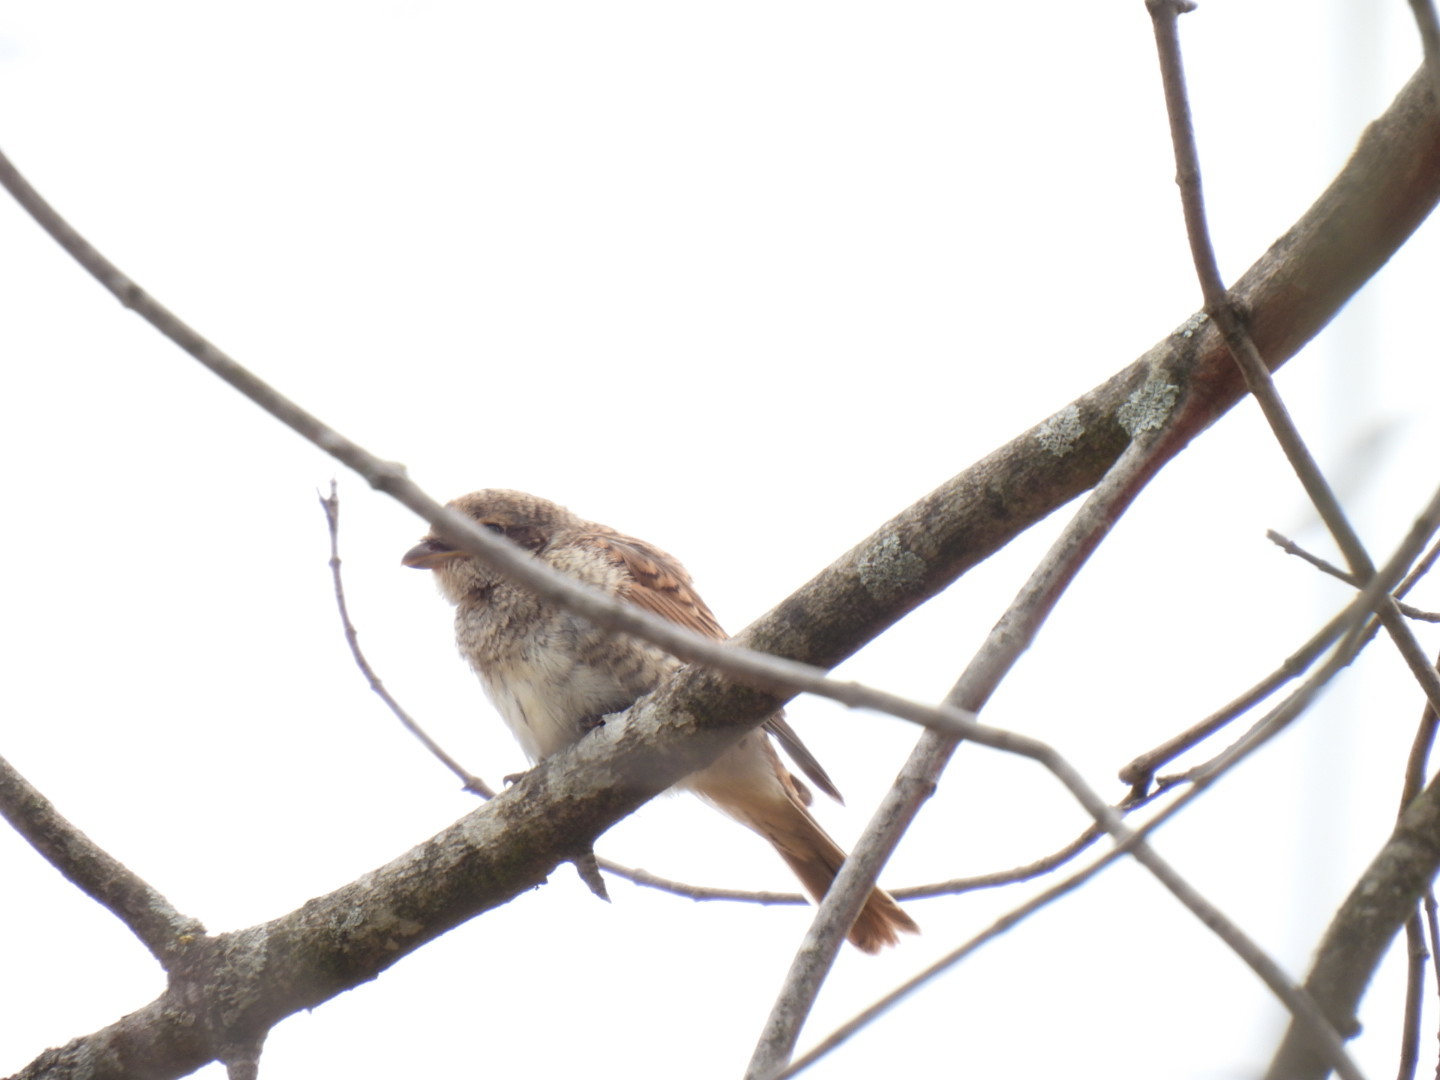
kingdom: Animalia
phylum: Chordata
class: Aves
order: Passeriformes
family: Laniidae
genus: Lanius
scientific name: Lanius collurio
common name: Red-backed shrike
